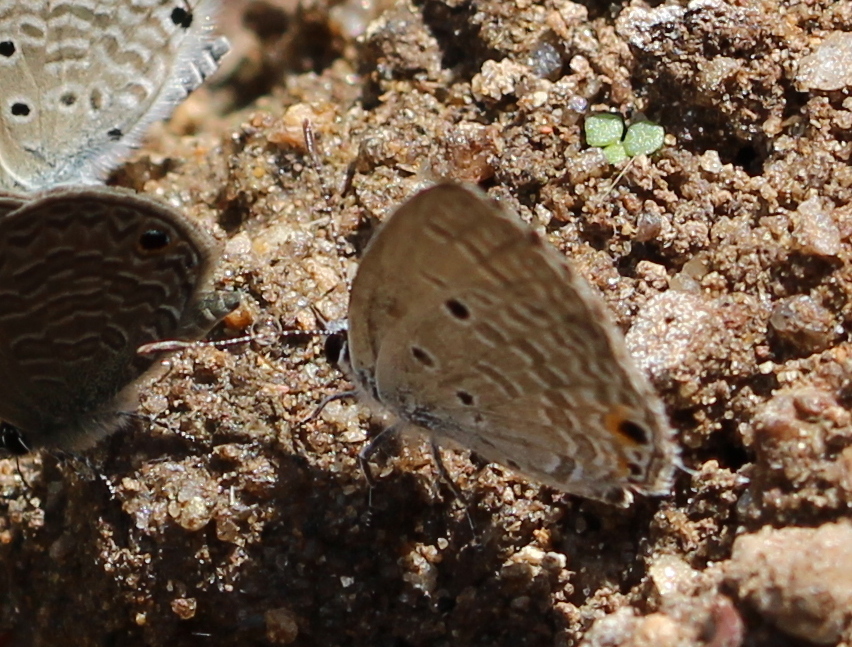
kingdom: Animalia
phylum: Arthropoda
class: Insecta
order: Lepidoptera
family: Lycaenidae
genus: Luthrodes
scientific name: Luthrodes pandava
